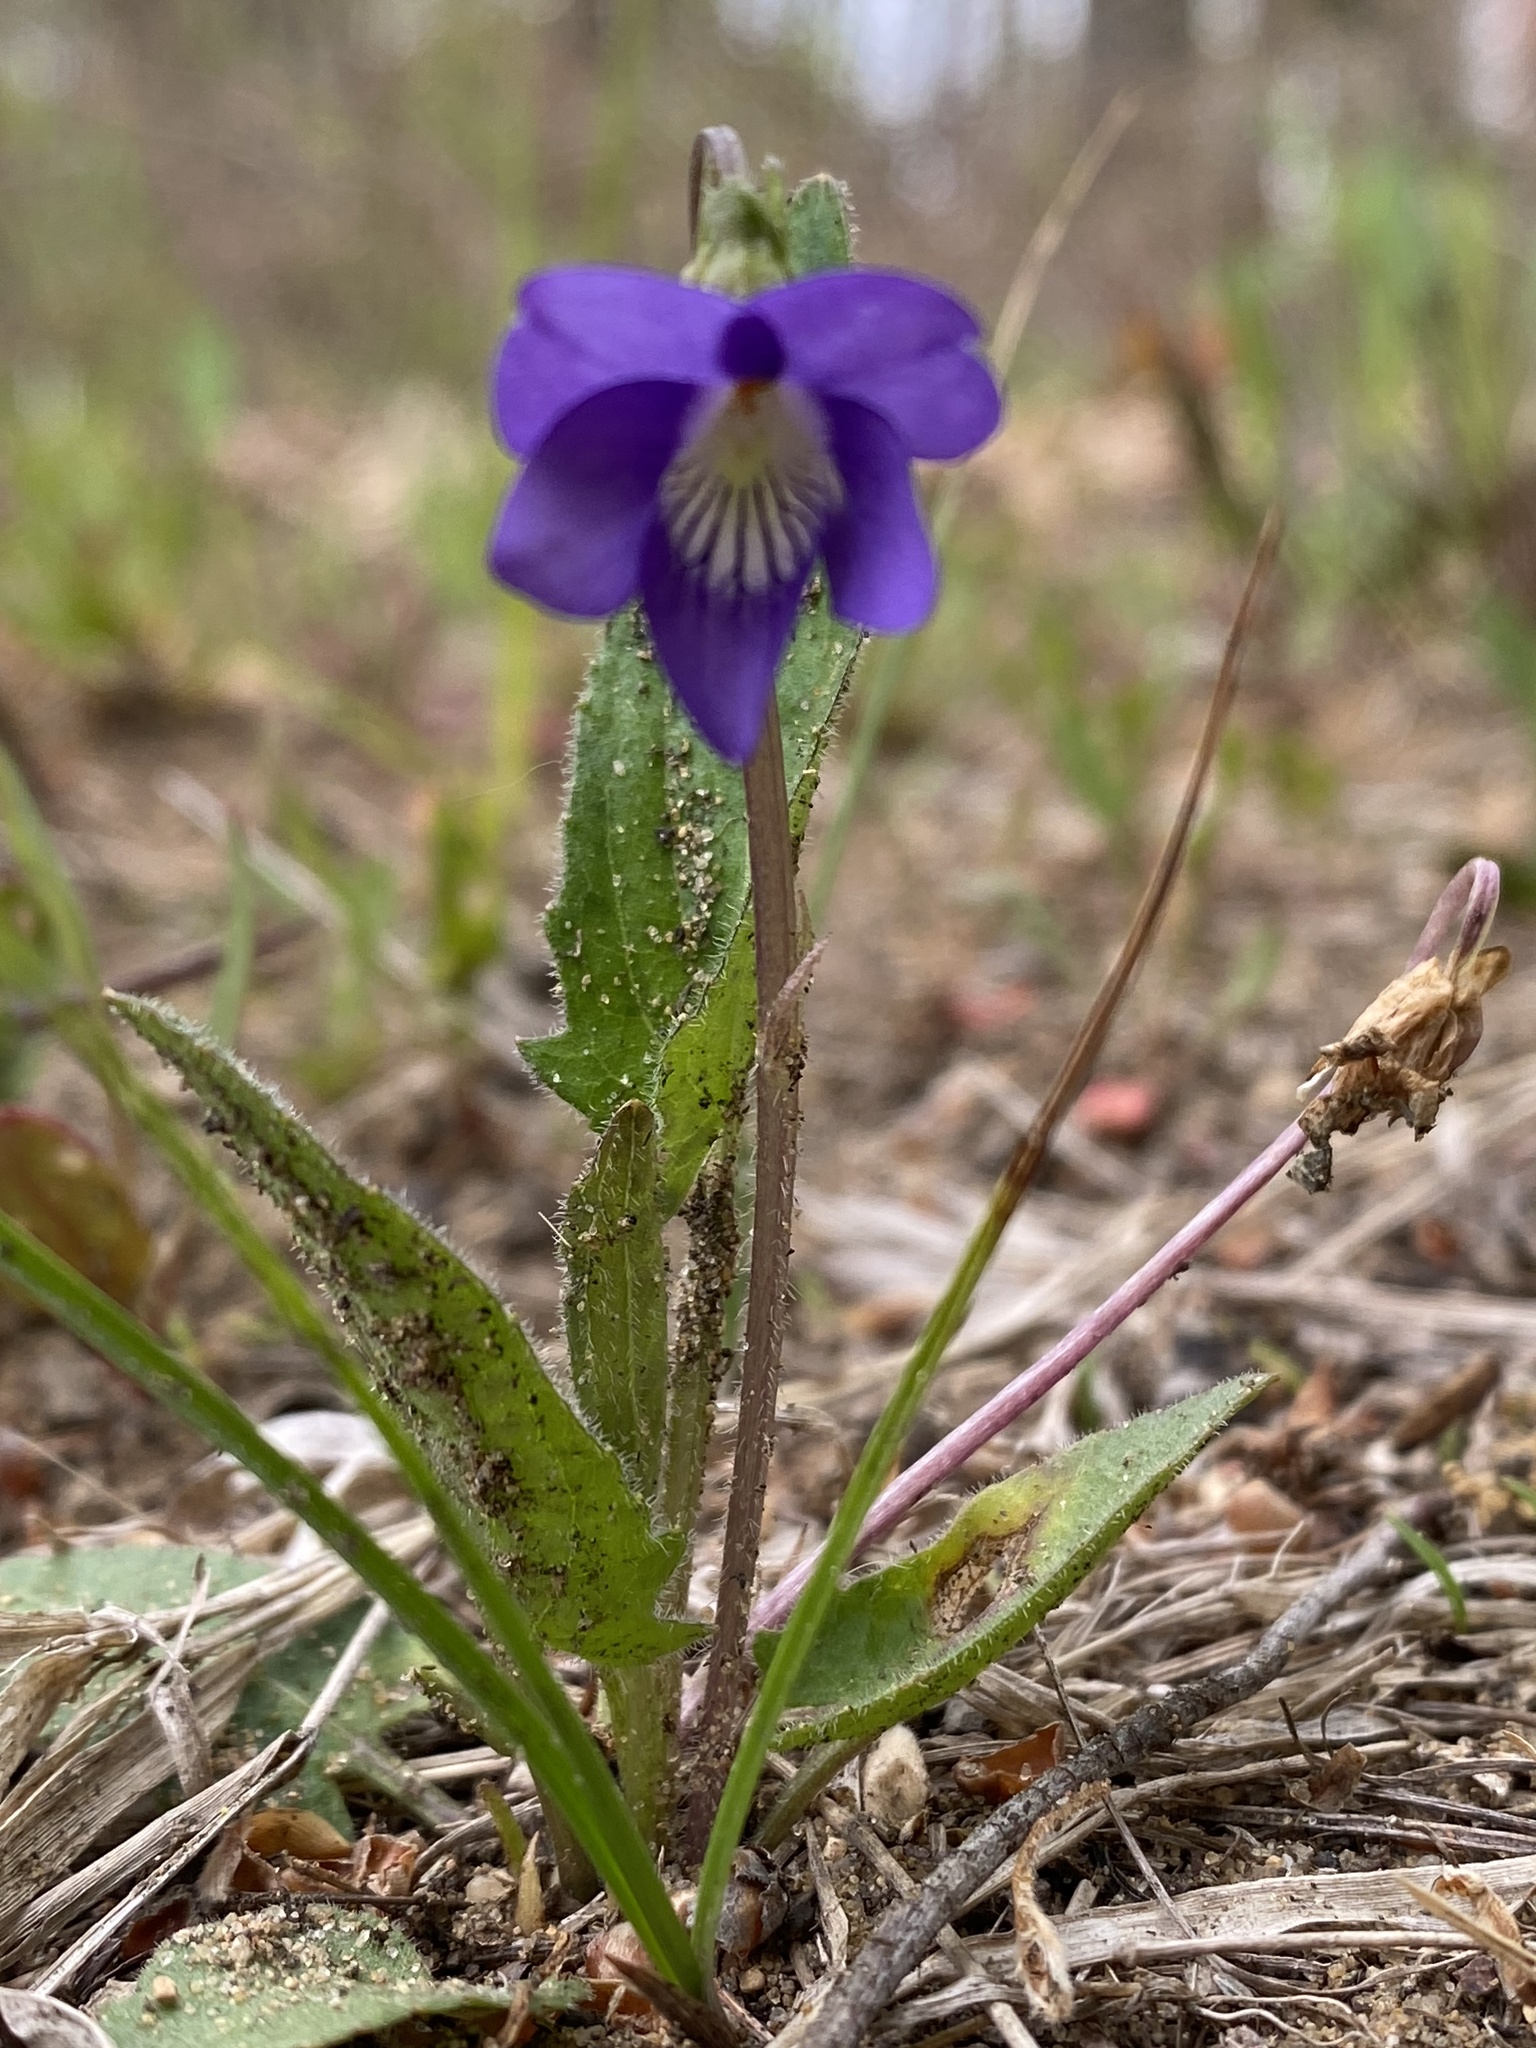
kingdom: Plantae
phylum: Tracheophyta
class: Magnoliopsida
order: Malpighiales
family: Violaceae
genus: Viola
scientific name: Viola sagittata
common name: Arrowhead violet
